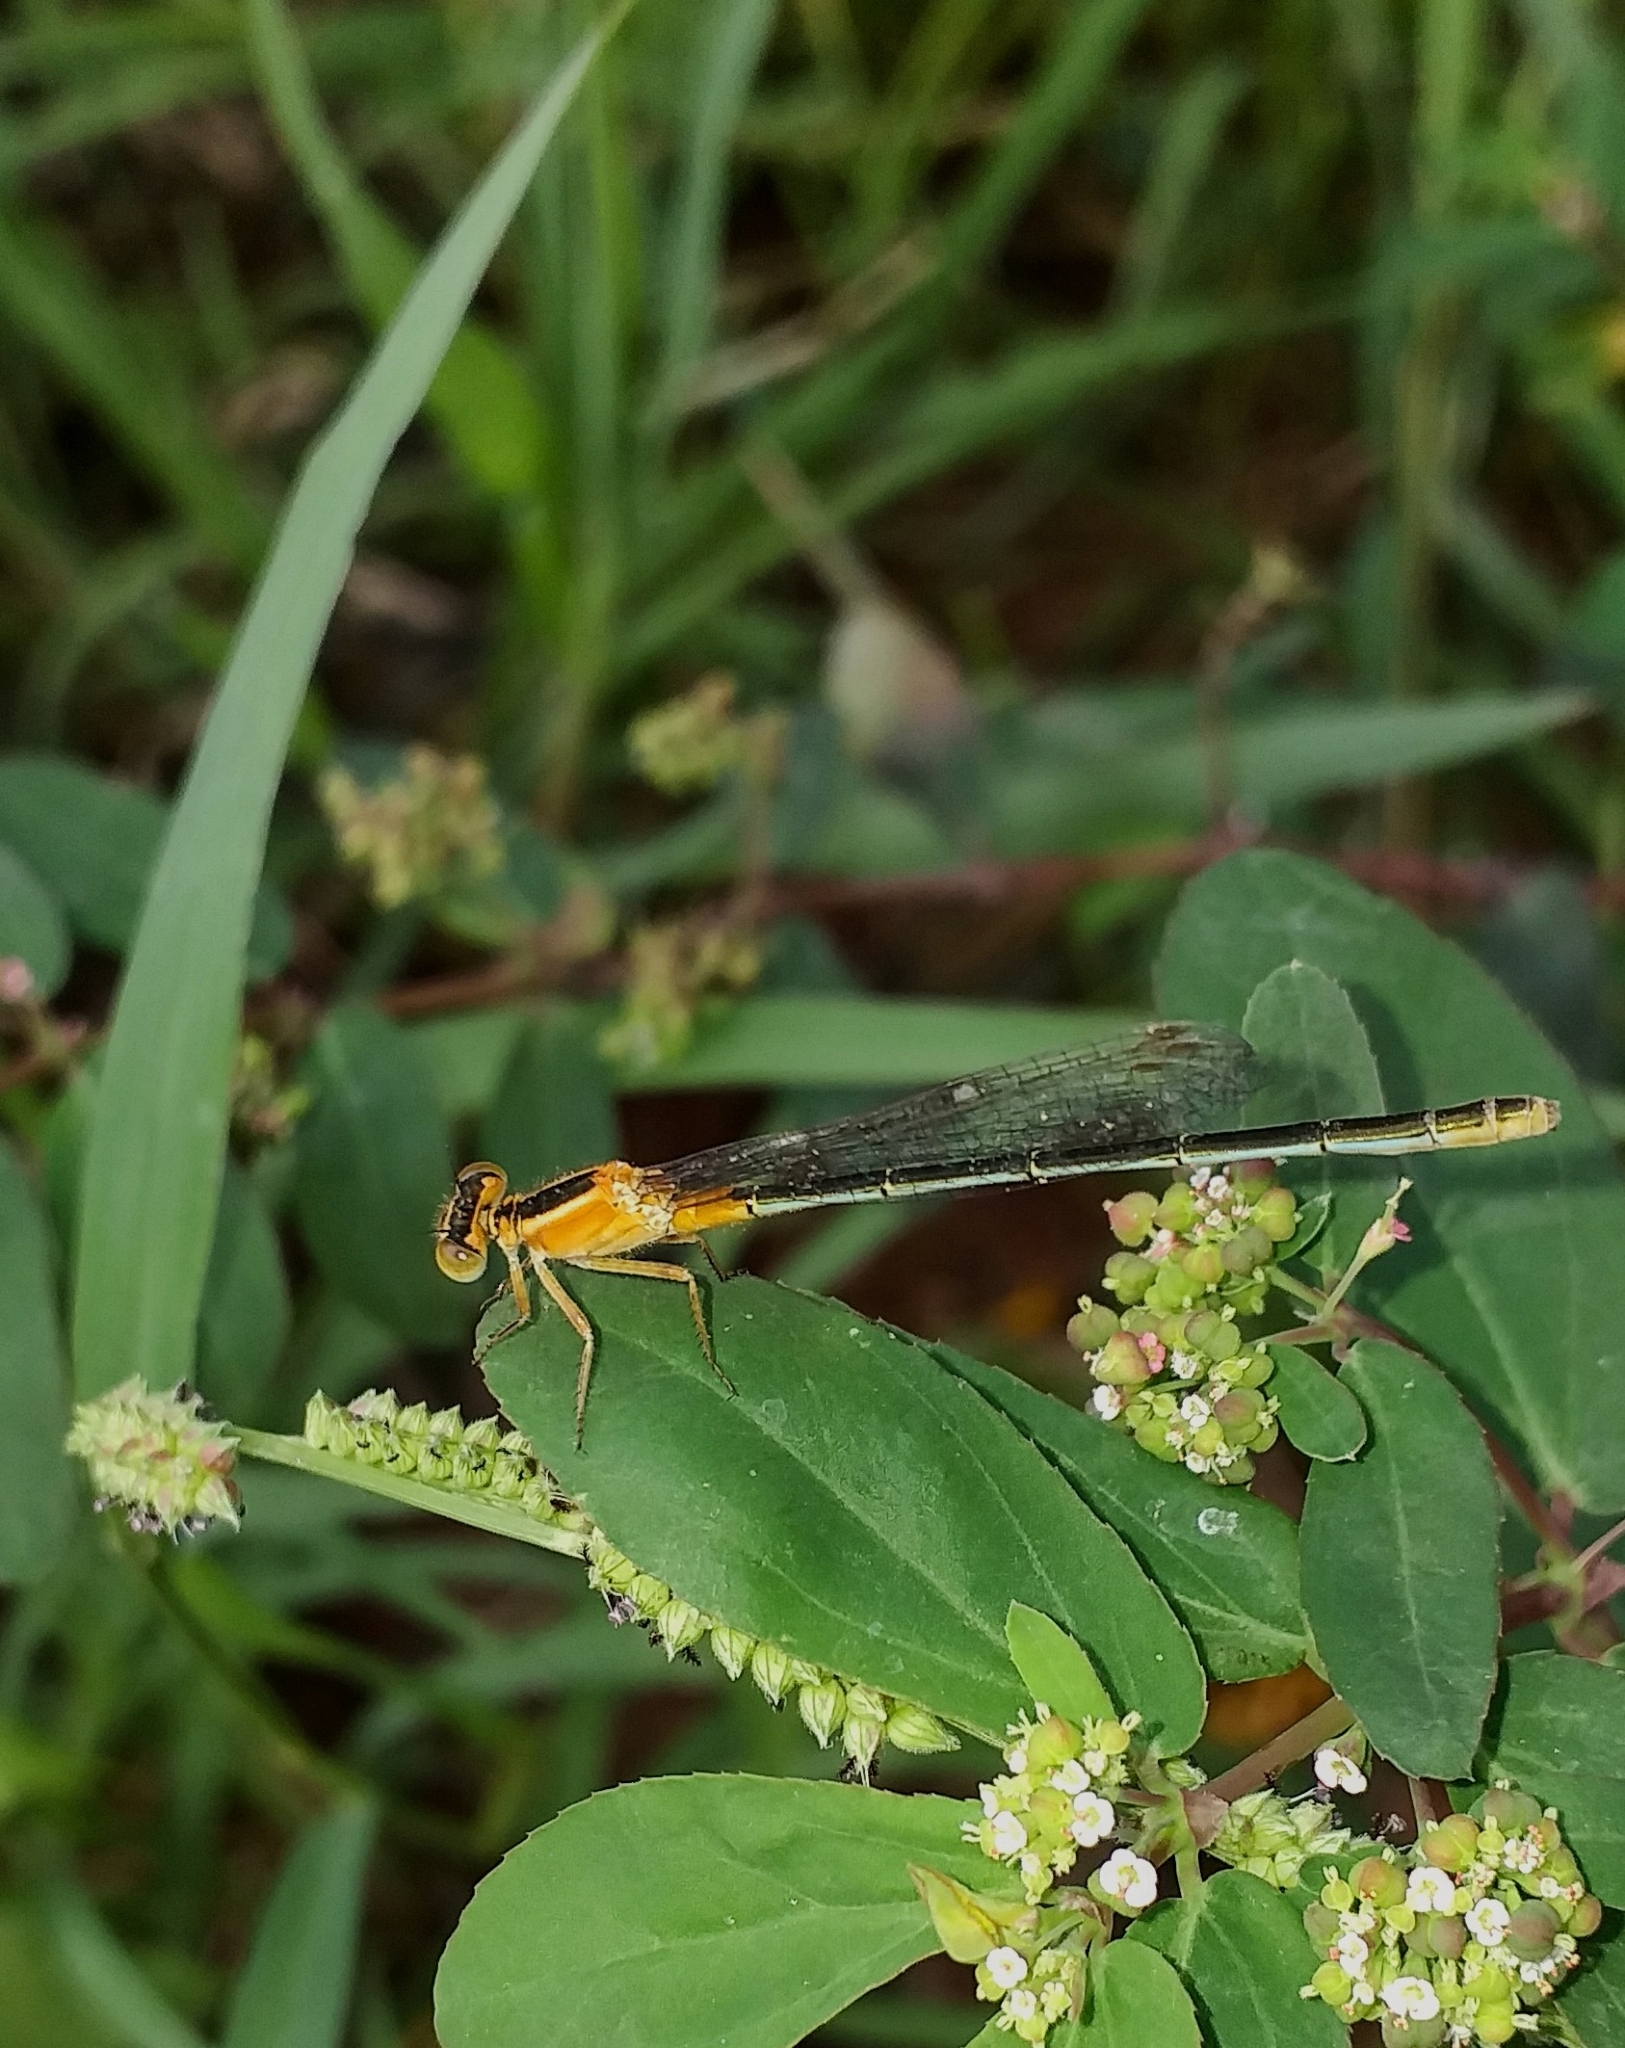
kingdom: Animalia
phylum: Arthropoda
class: Insecta
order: Odonata
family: Coenagrionidae
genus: Ischnura
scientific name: Ischnura senegalensis
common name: Tropical bluetail
